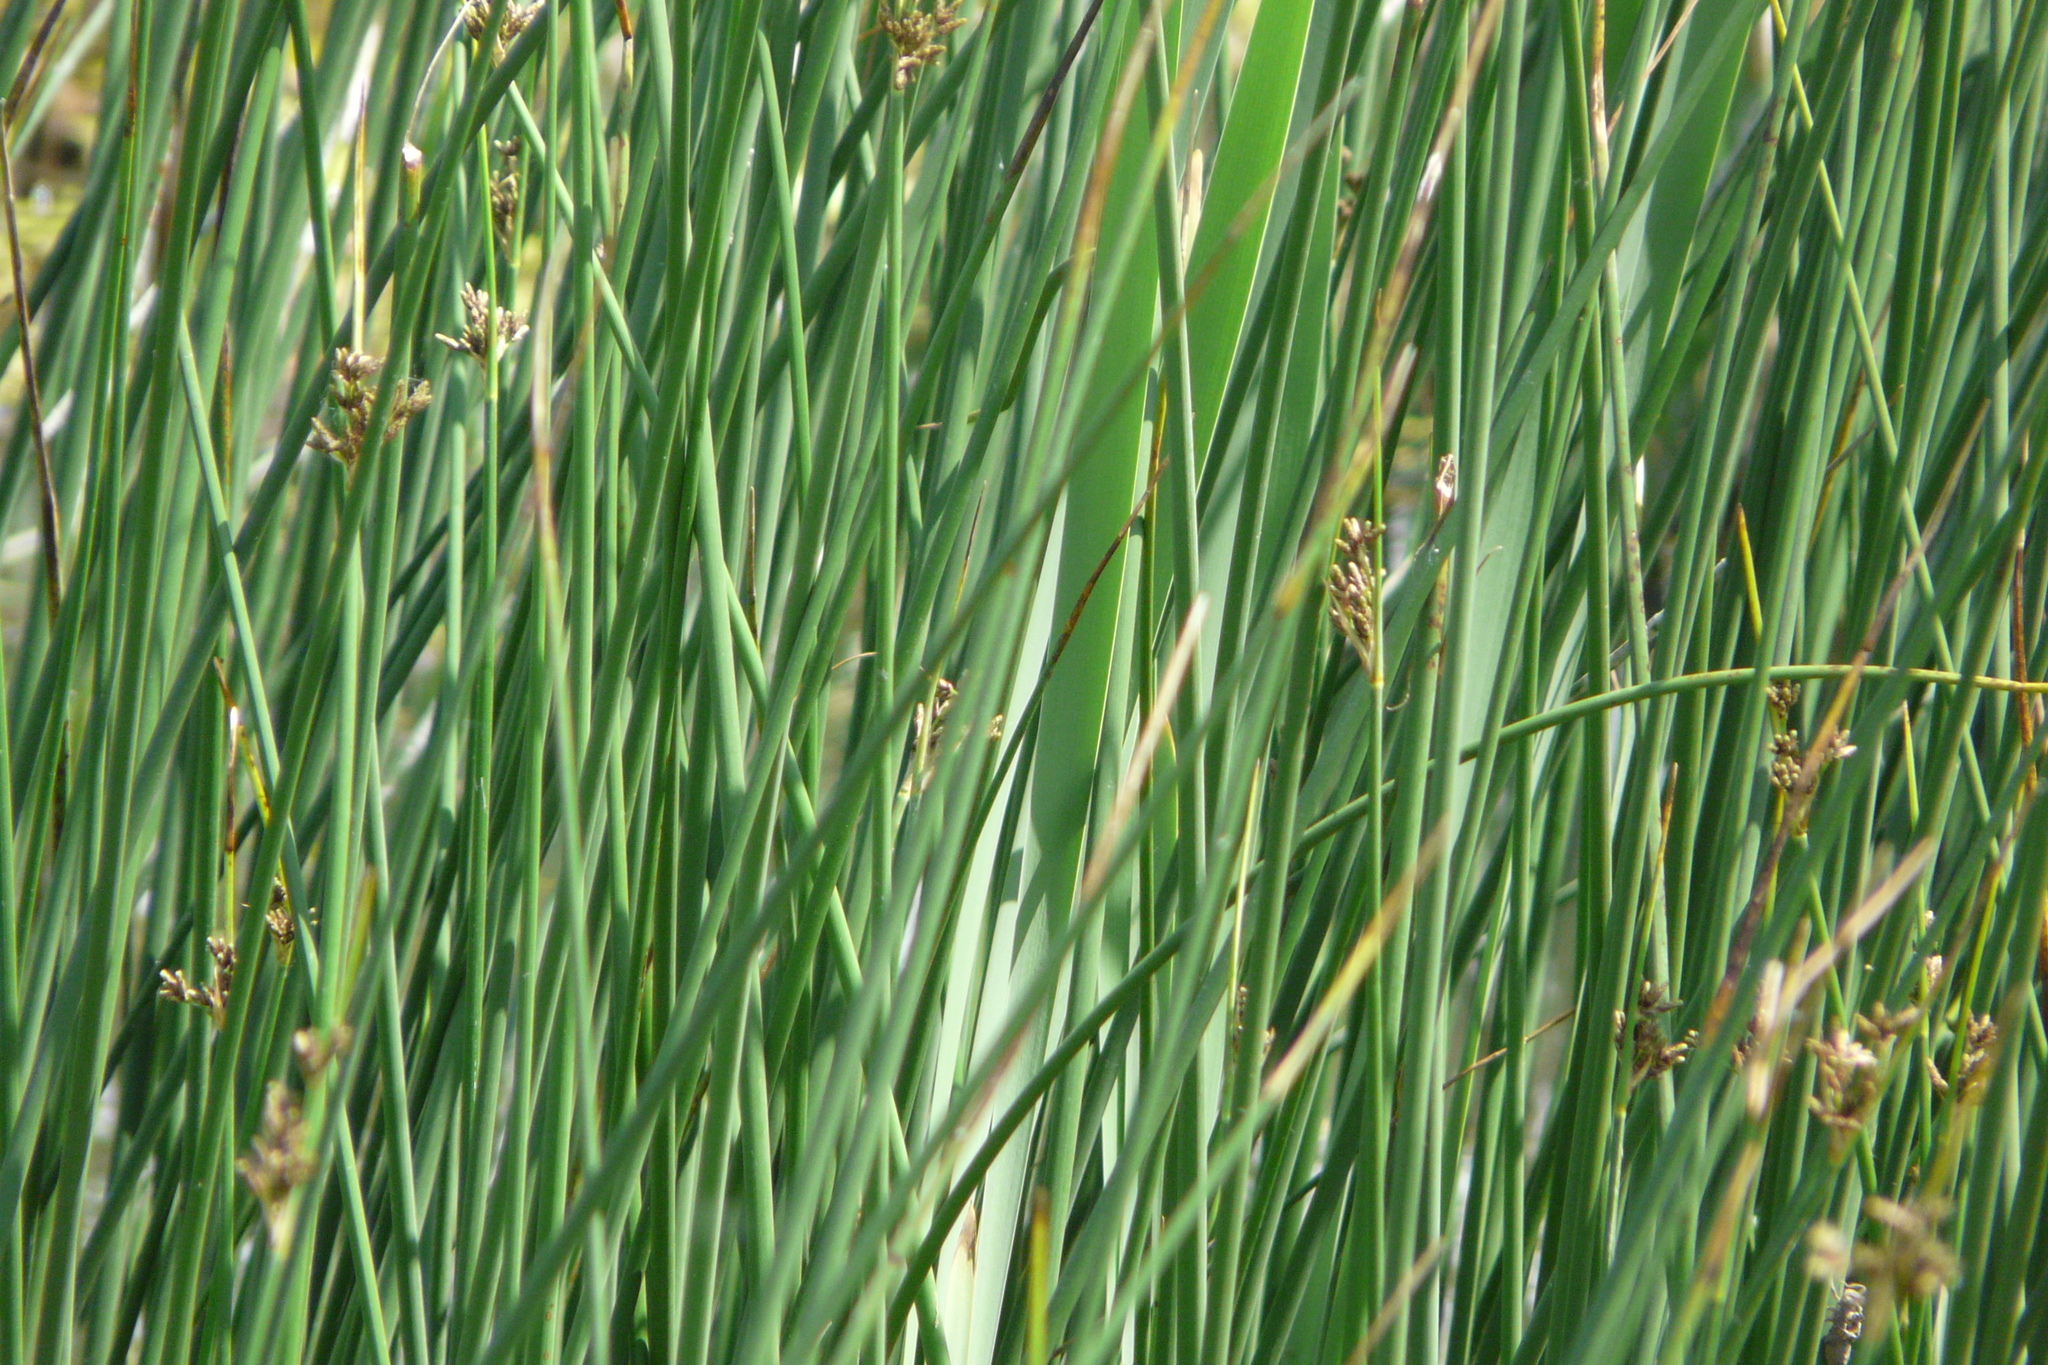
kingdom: Plantae
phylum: Tracheophyta
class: Liliopsida
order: Poales
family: Cyperaceae
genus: Schoenoplectus
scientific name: Schoenoplectus lacustris
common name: Common club-rush
